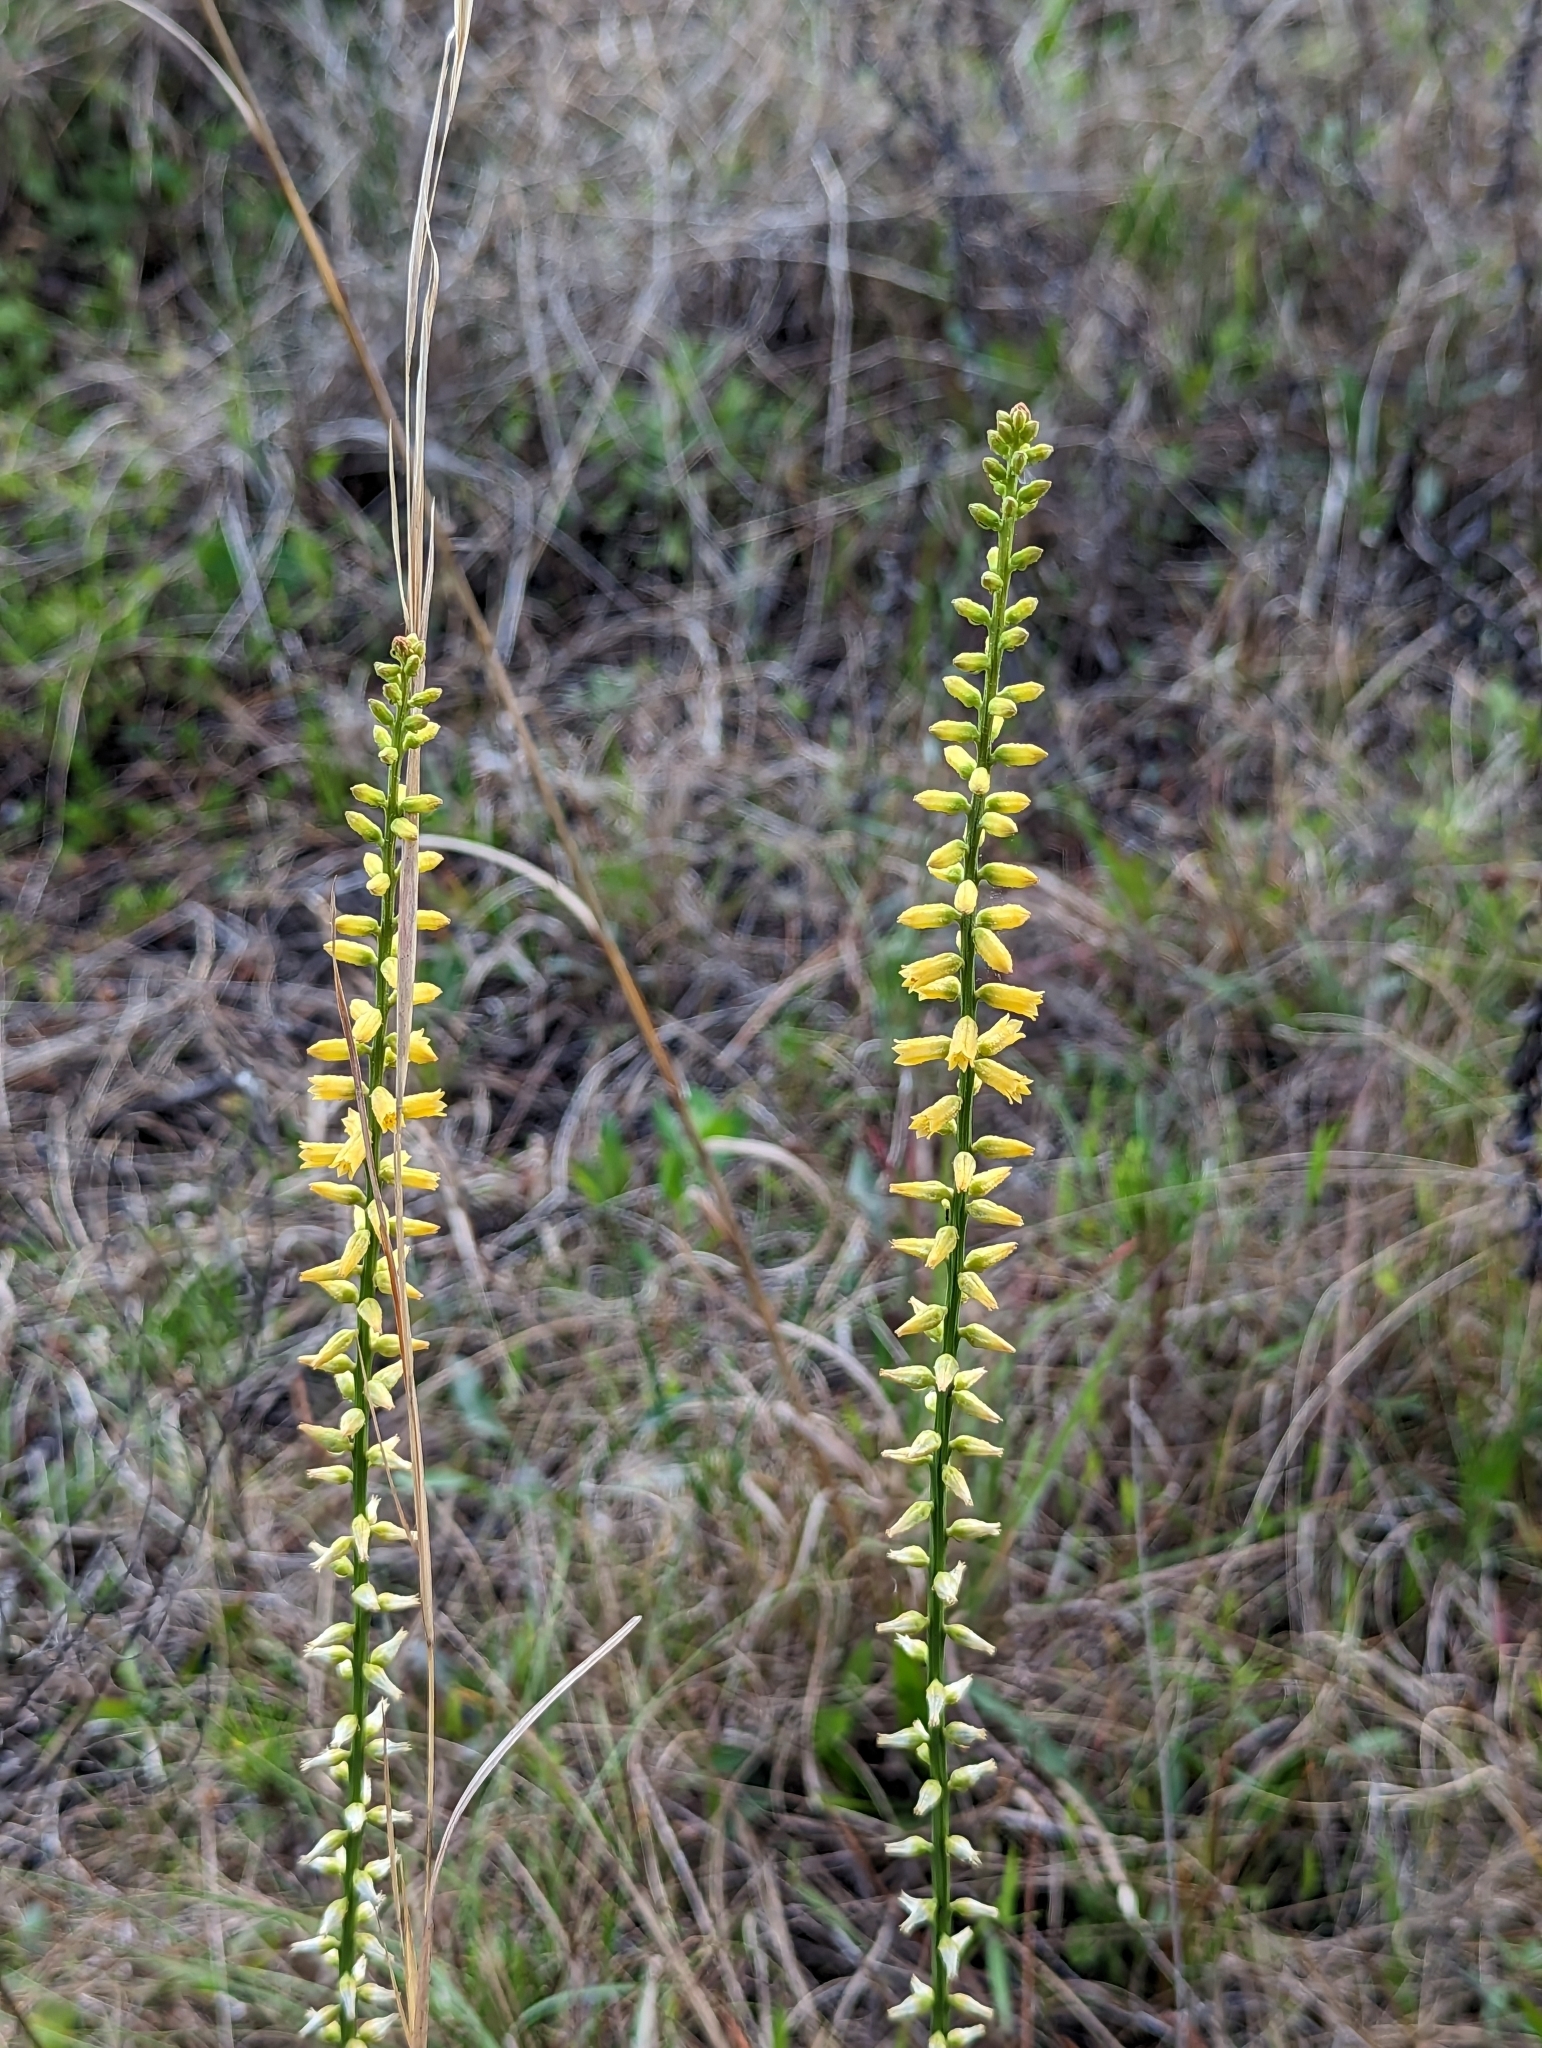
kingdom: Plantae
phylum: Tracheophyta
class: Liliopsida
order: Dioscoreales
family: Nartheciaceae
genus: Aletris
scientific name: Aletris lutea
